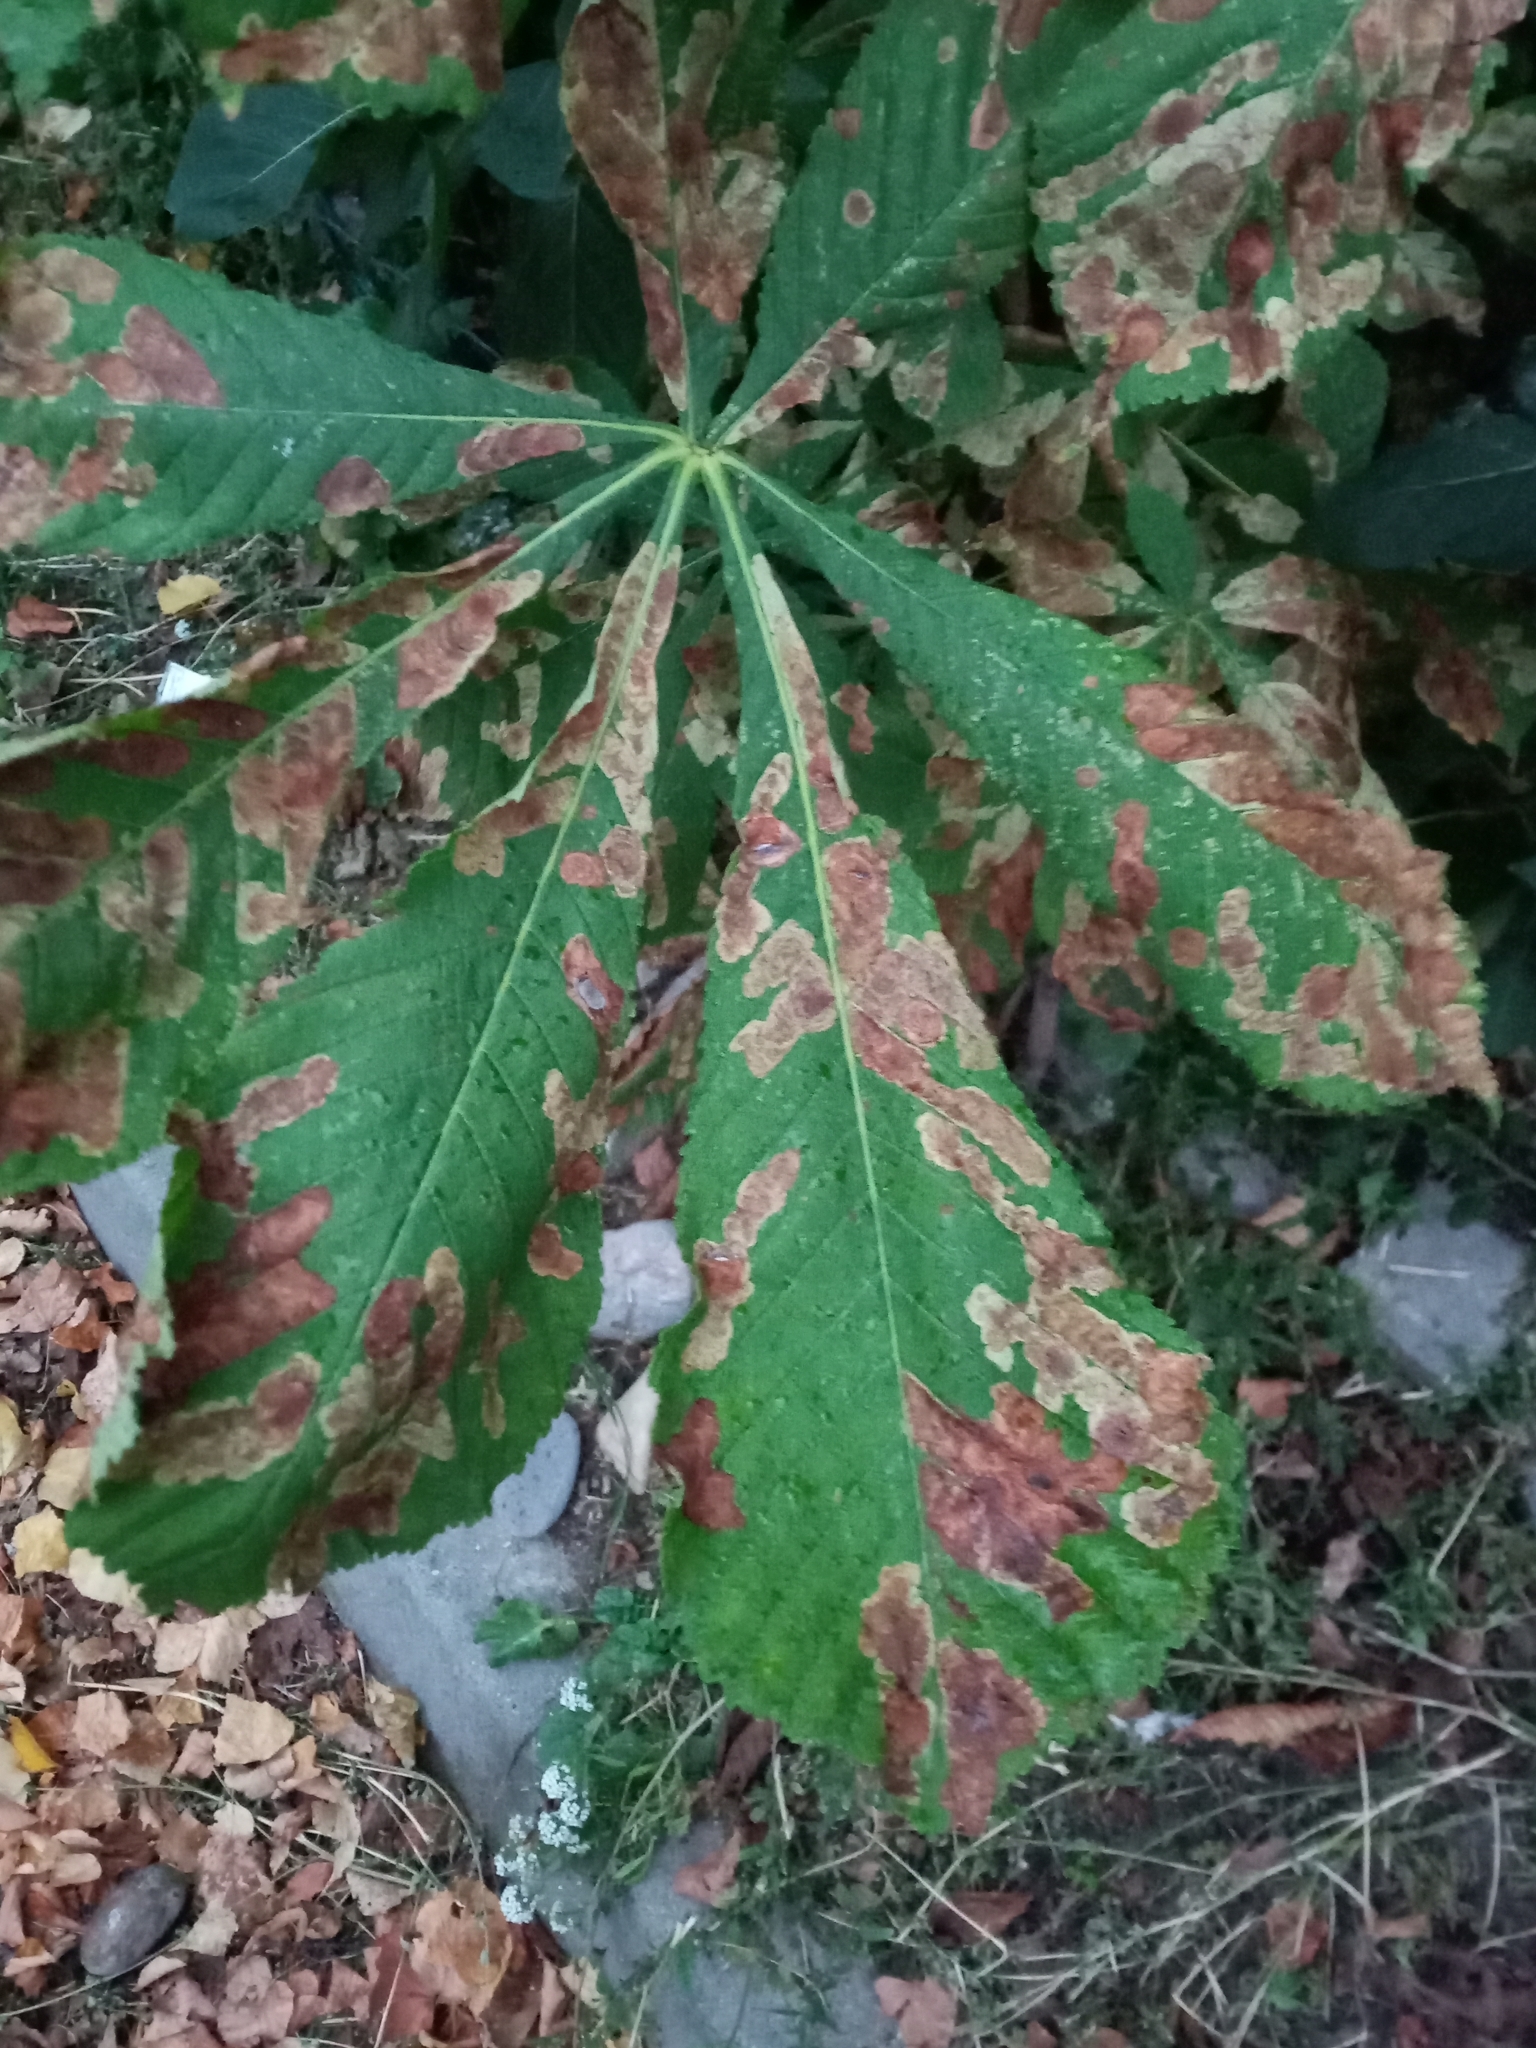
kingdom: Animalia
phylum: Arthropoda
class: Insecta
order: Lepidoptera
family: Gracillariidae
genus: Cameraria
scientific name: Cameraria ohridella
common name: Horse-chestnut leaf-miner
